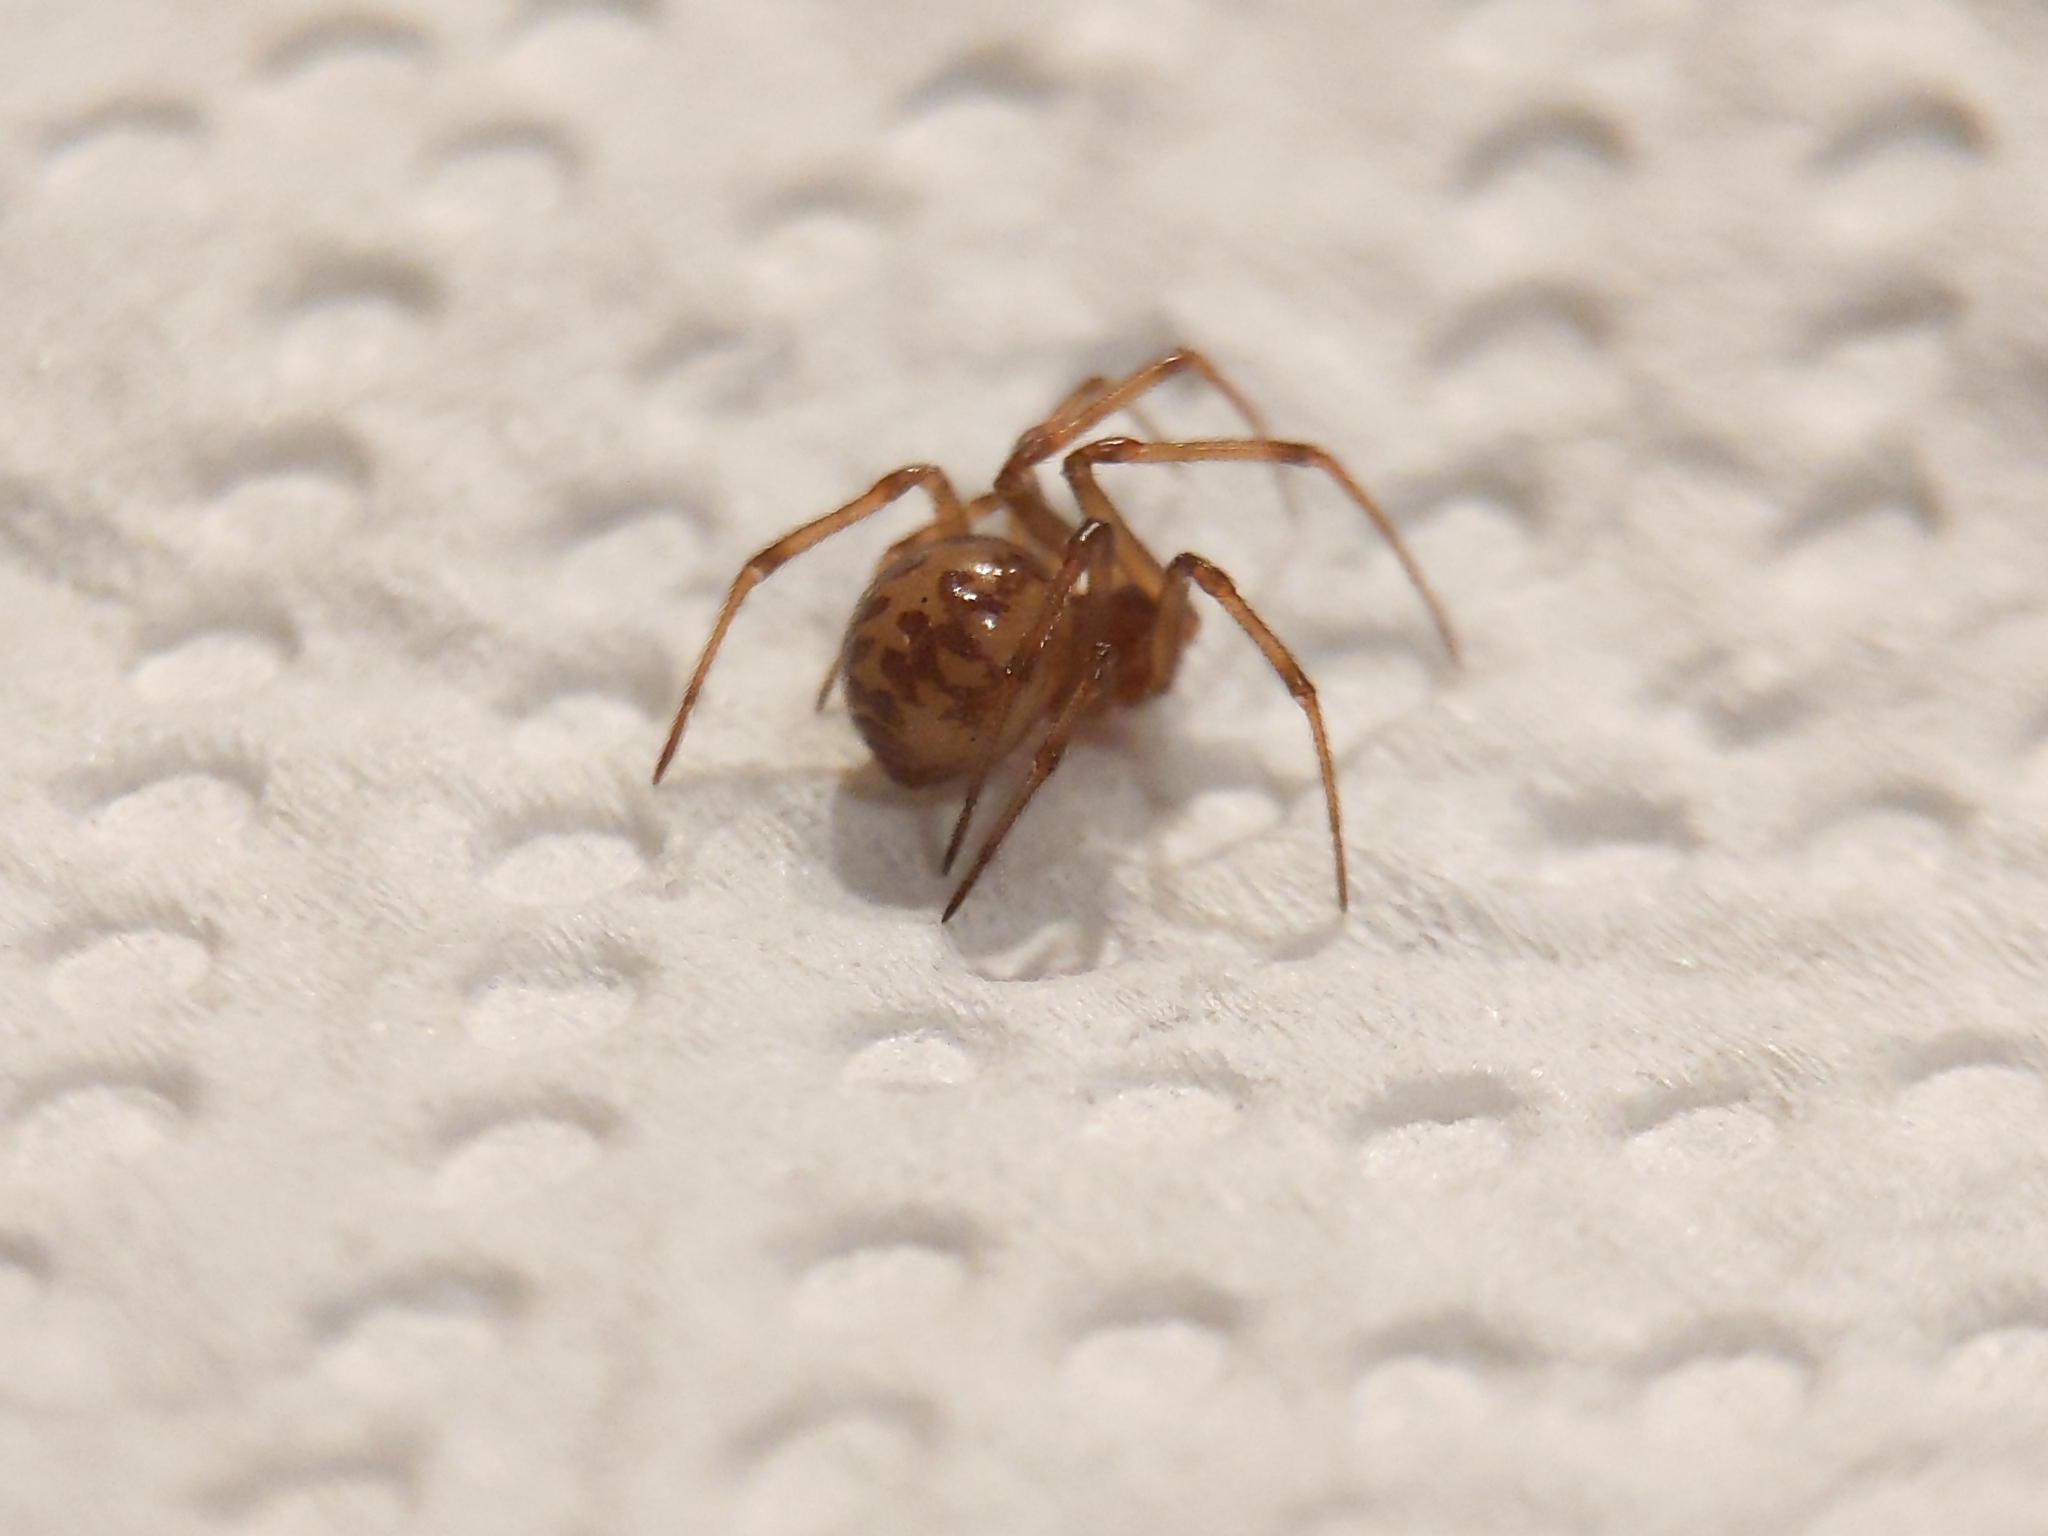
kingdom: Animalia
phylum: Arthropoda
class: Arachnida
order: Araneae
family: Theridiidae
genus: Steatoda
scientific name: Steatoda triangulosa
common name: Triangulate bud spider
